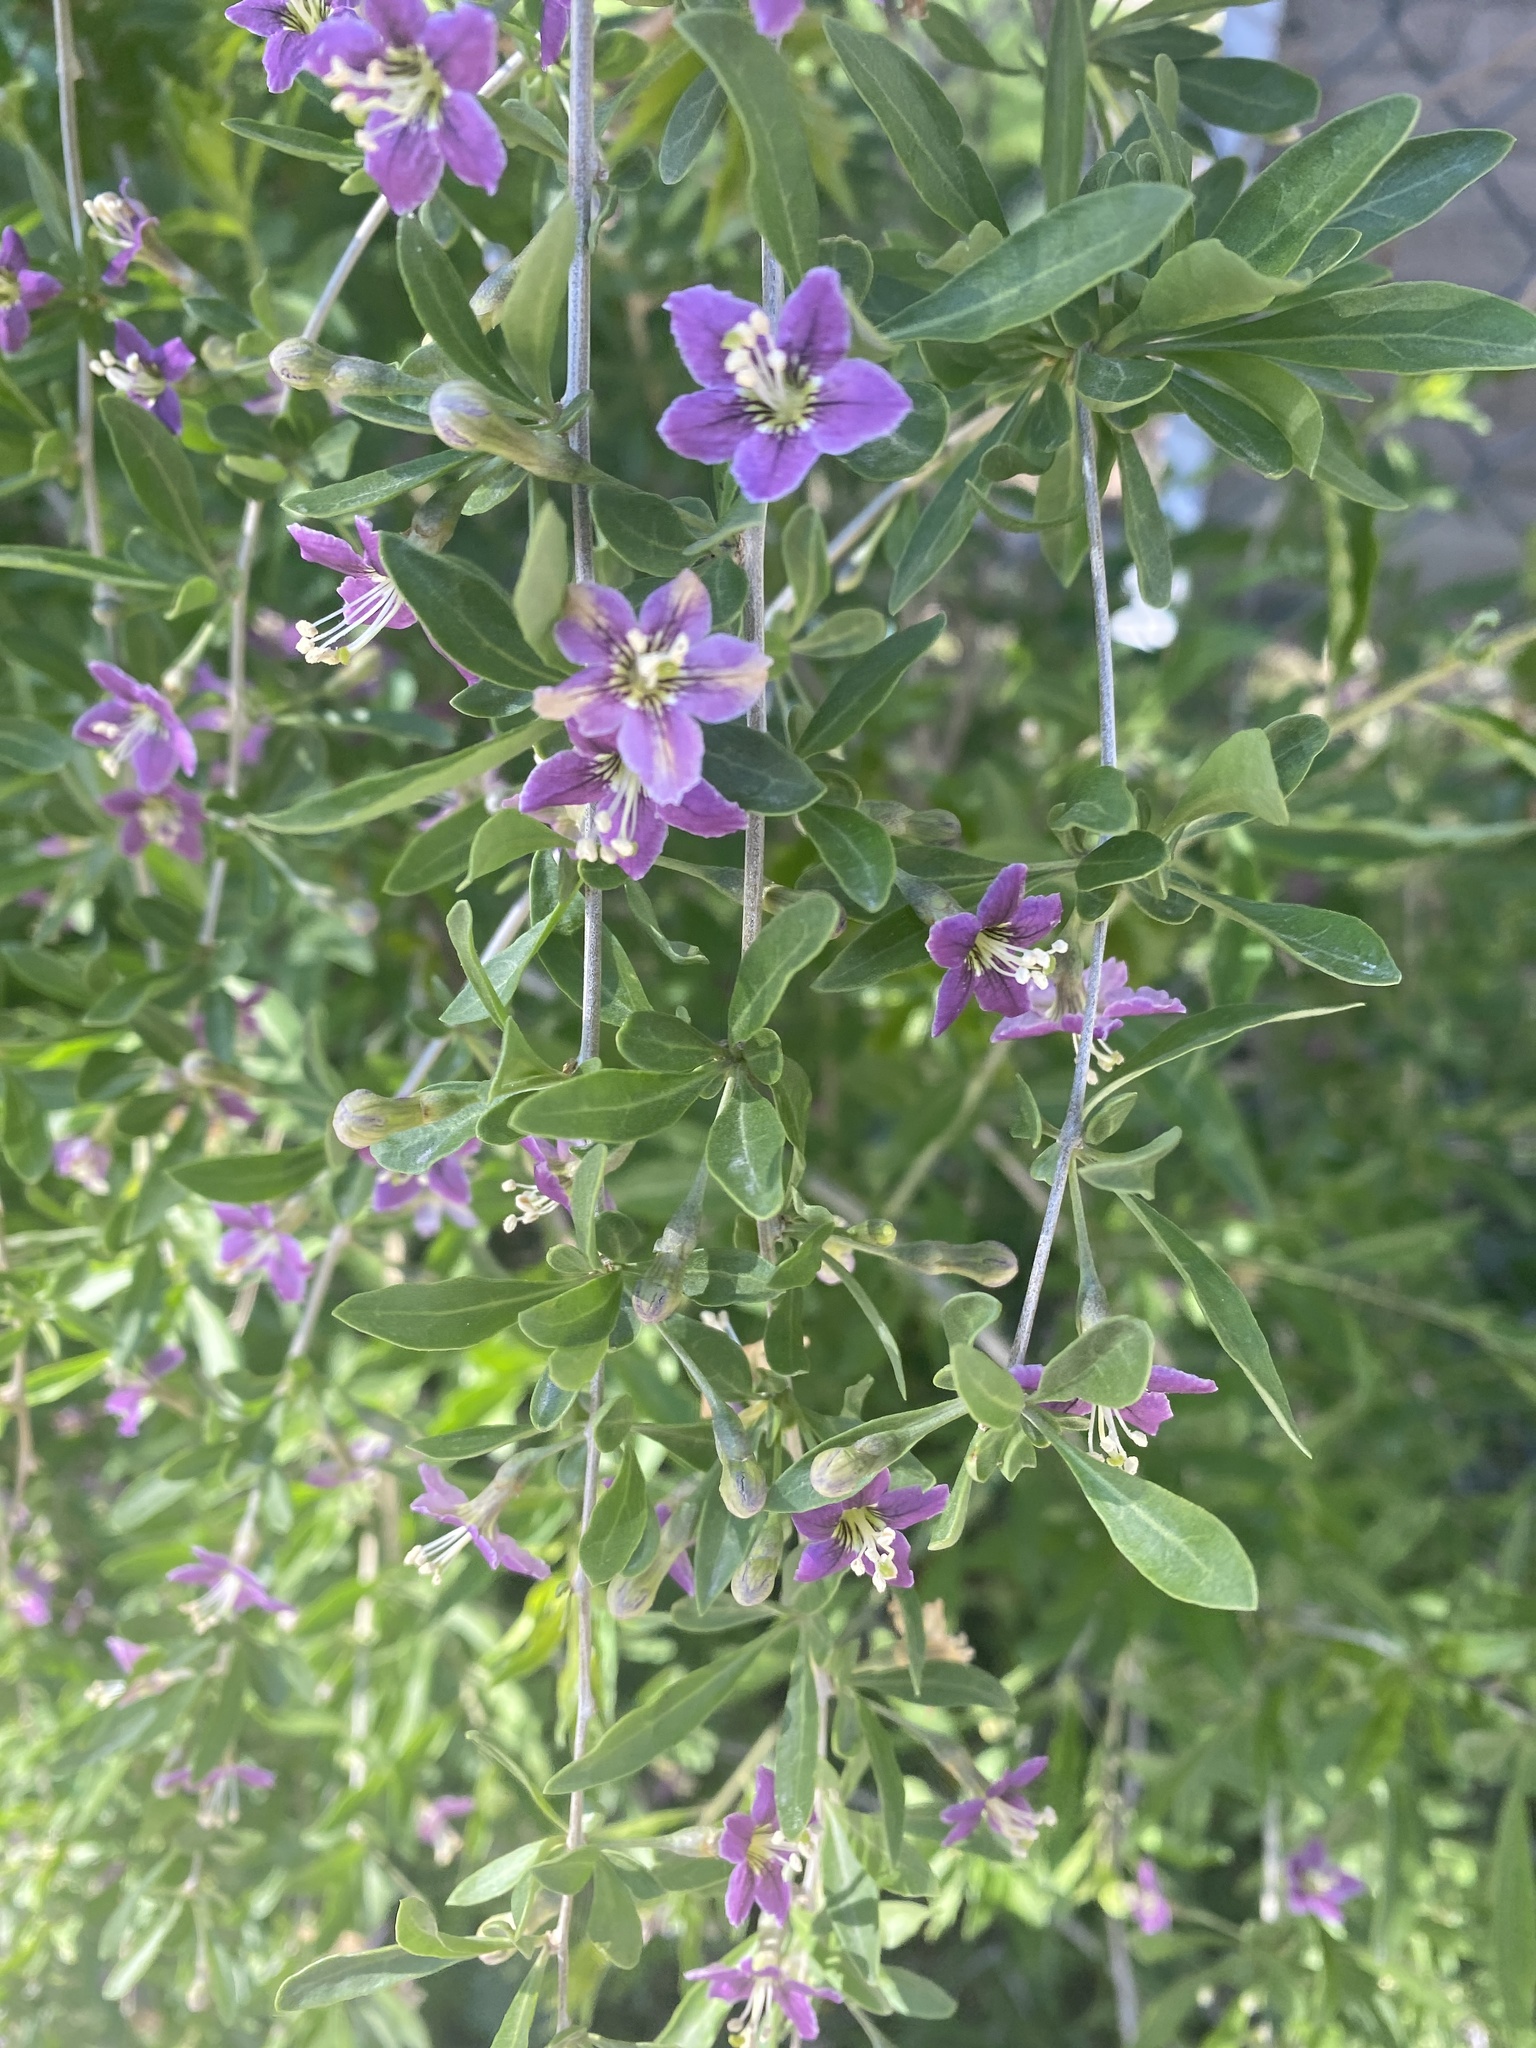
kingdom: Plantae
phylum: Tracheophyta
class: Magnoliopsida
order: Solanales
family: Solanaceae
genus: Lycium
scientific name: Lycium barbarum
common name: Duke of argyll's teaplant
